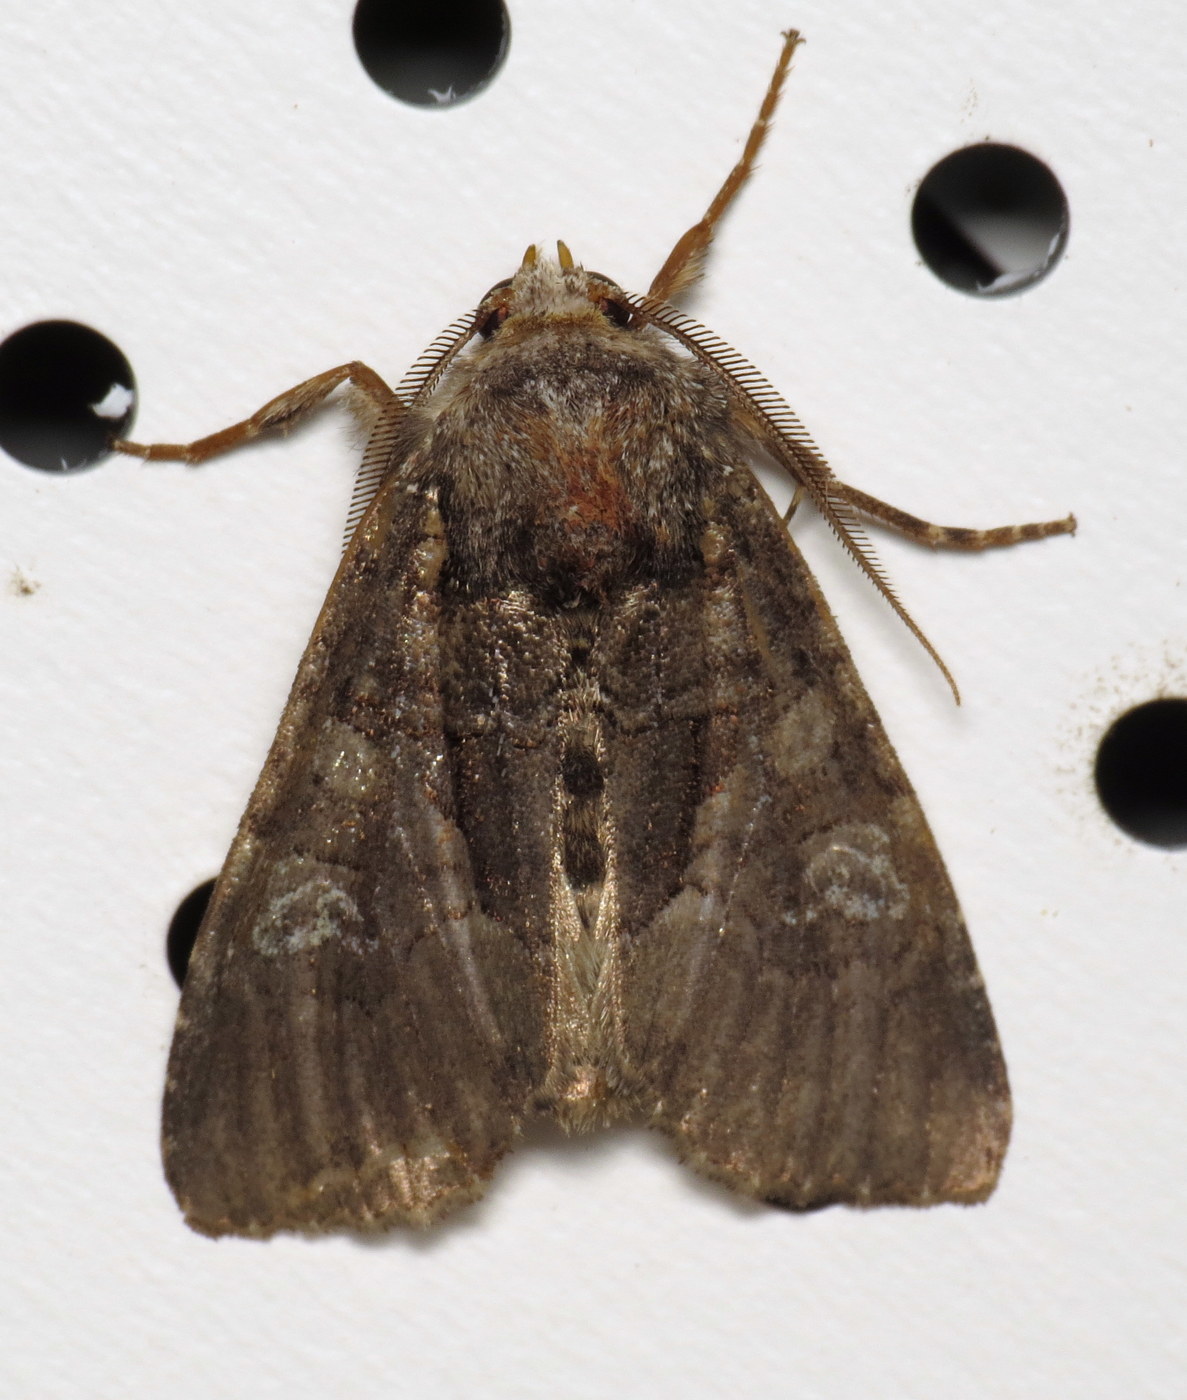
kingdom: Animalia
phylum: Arthropoda
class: Insecta
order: Lepidoptera
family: Noctuidae
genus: Fishia
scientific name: Fishia illocata
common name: Wandering brocade moth
